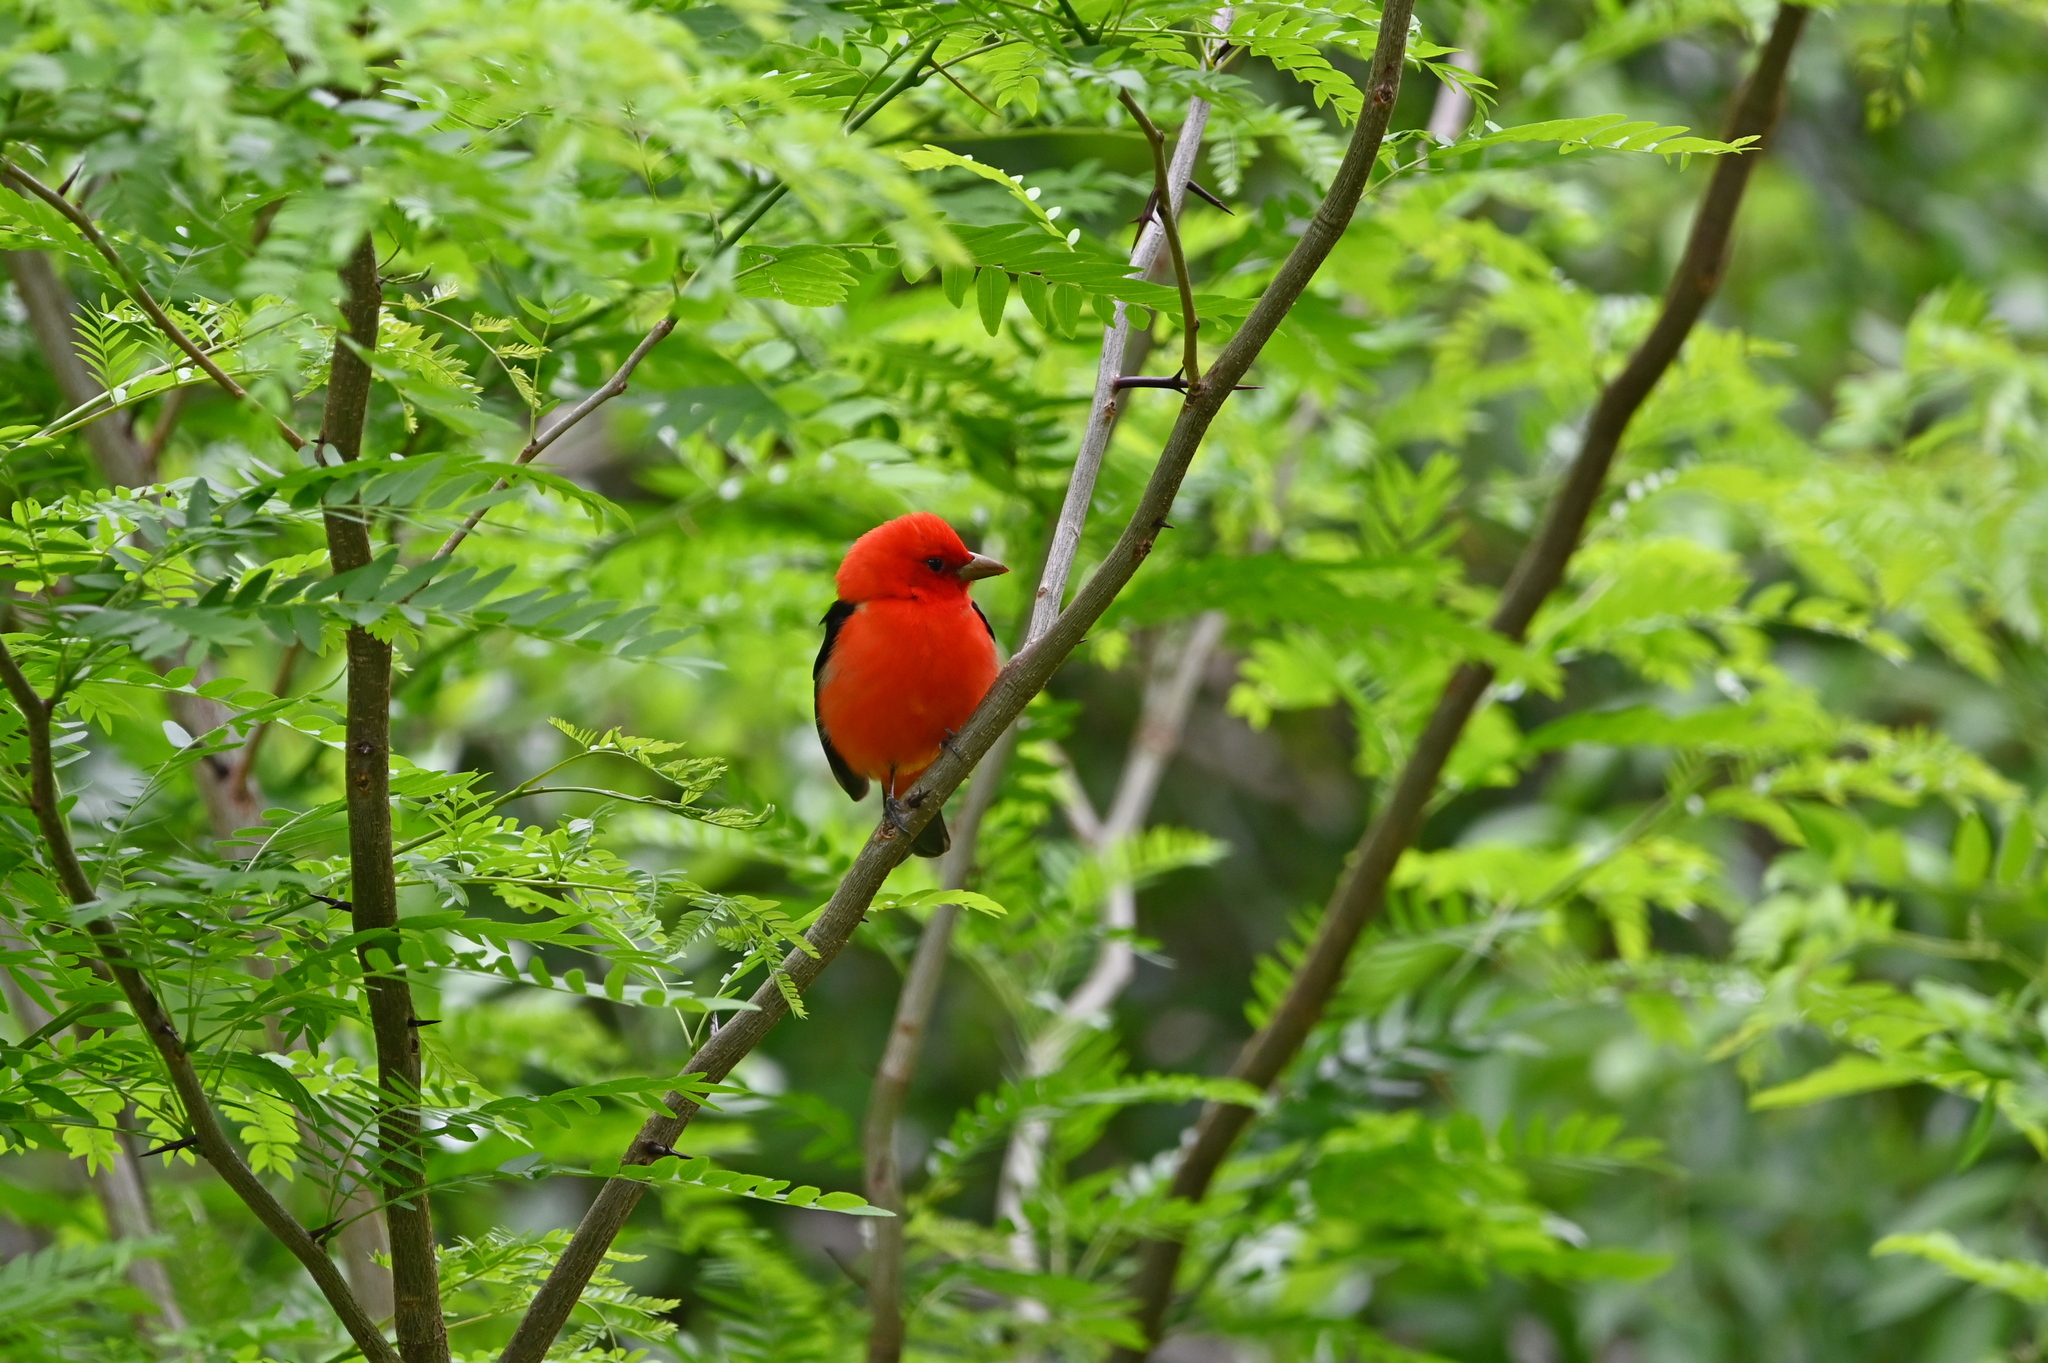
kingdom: Animalia
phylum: Chordata
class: Aves
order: Passeriformes
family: Cardinalidae
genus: Piranga
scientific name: Piranga olivacea
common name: Scarlet tanager
